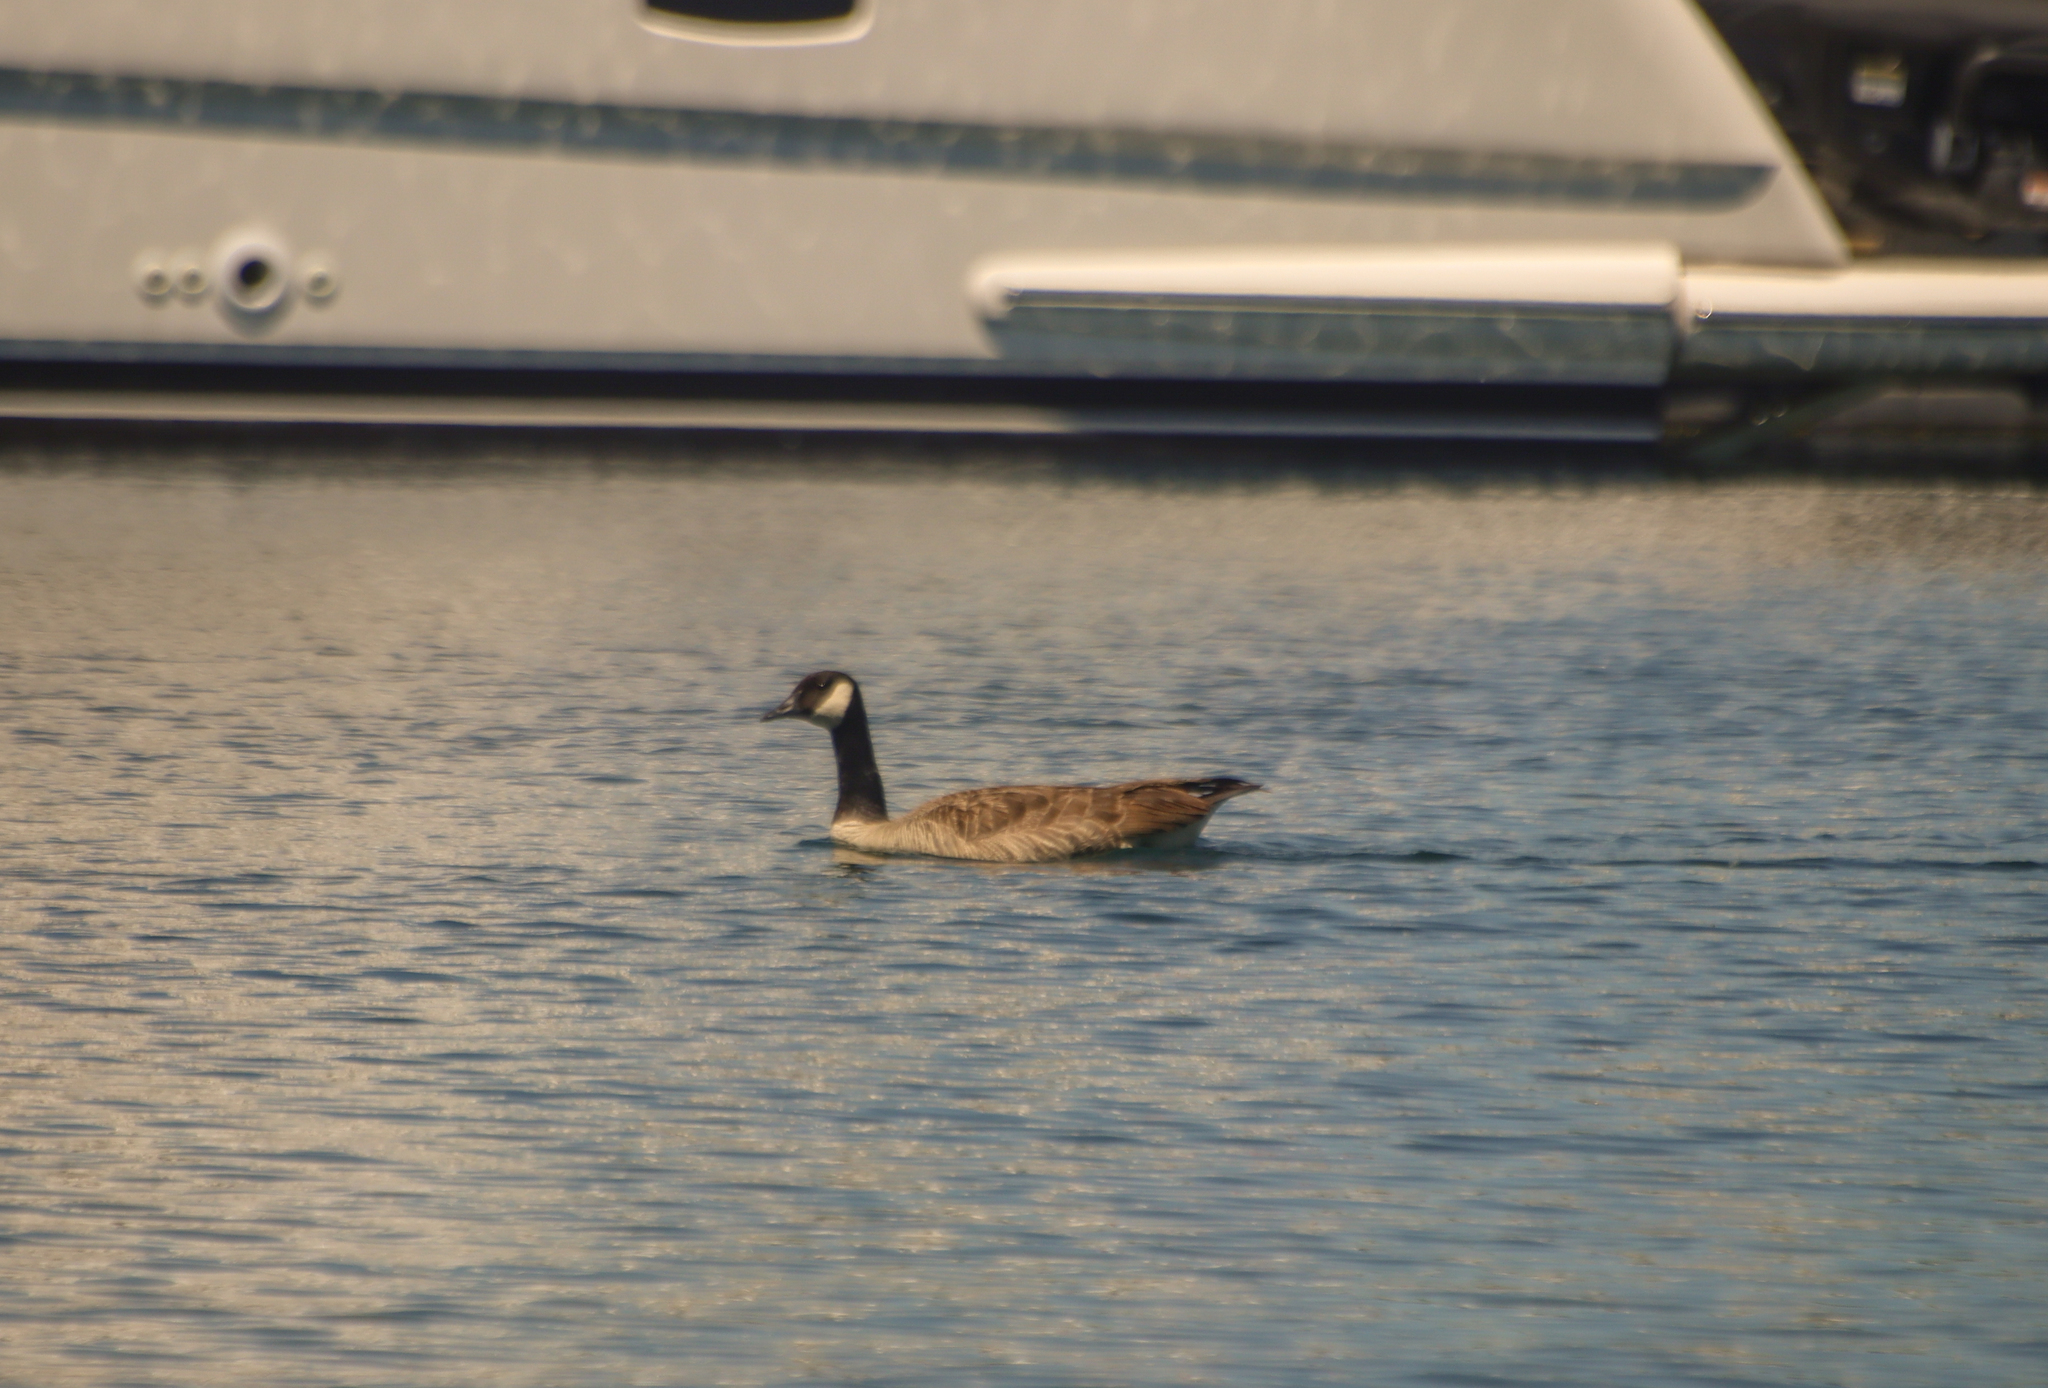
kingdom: Animalia
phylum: Chordata
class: Aves
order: Anseriformes
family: Anatidae
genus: Branta
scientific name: Branta canadensis
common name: Canada goose
